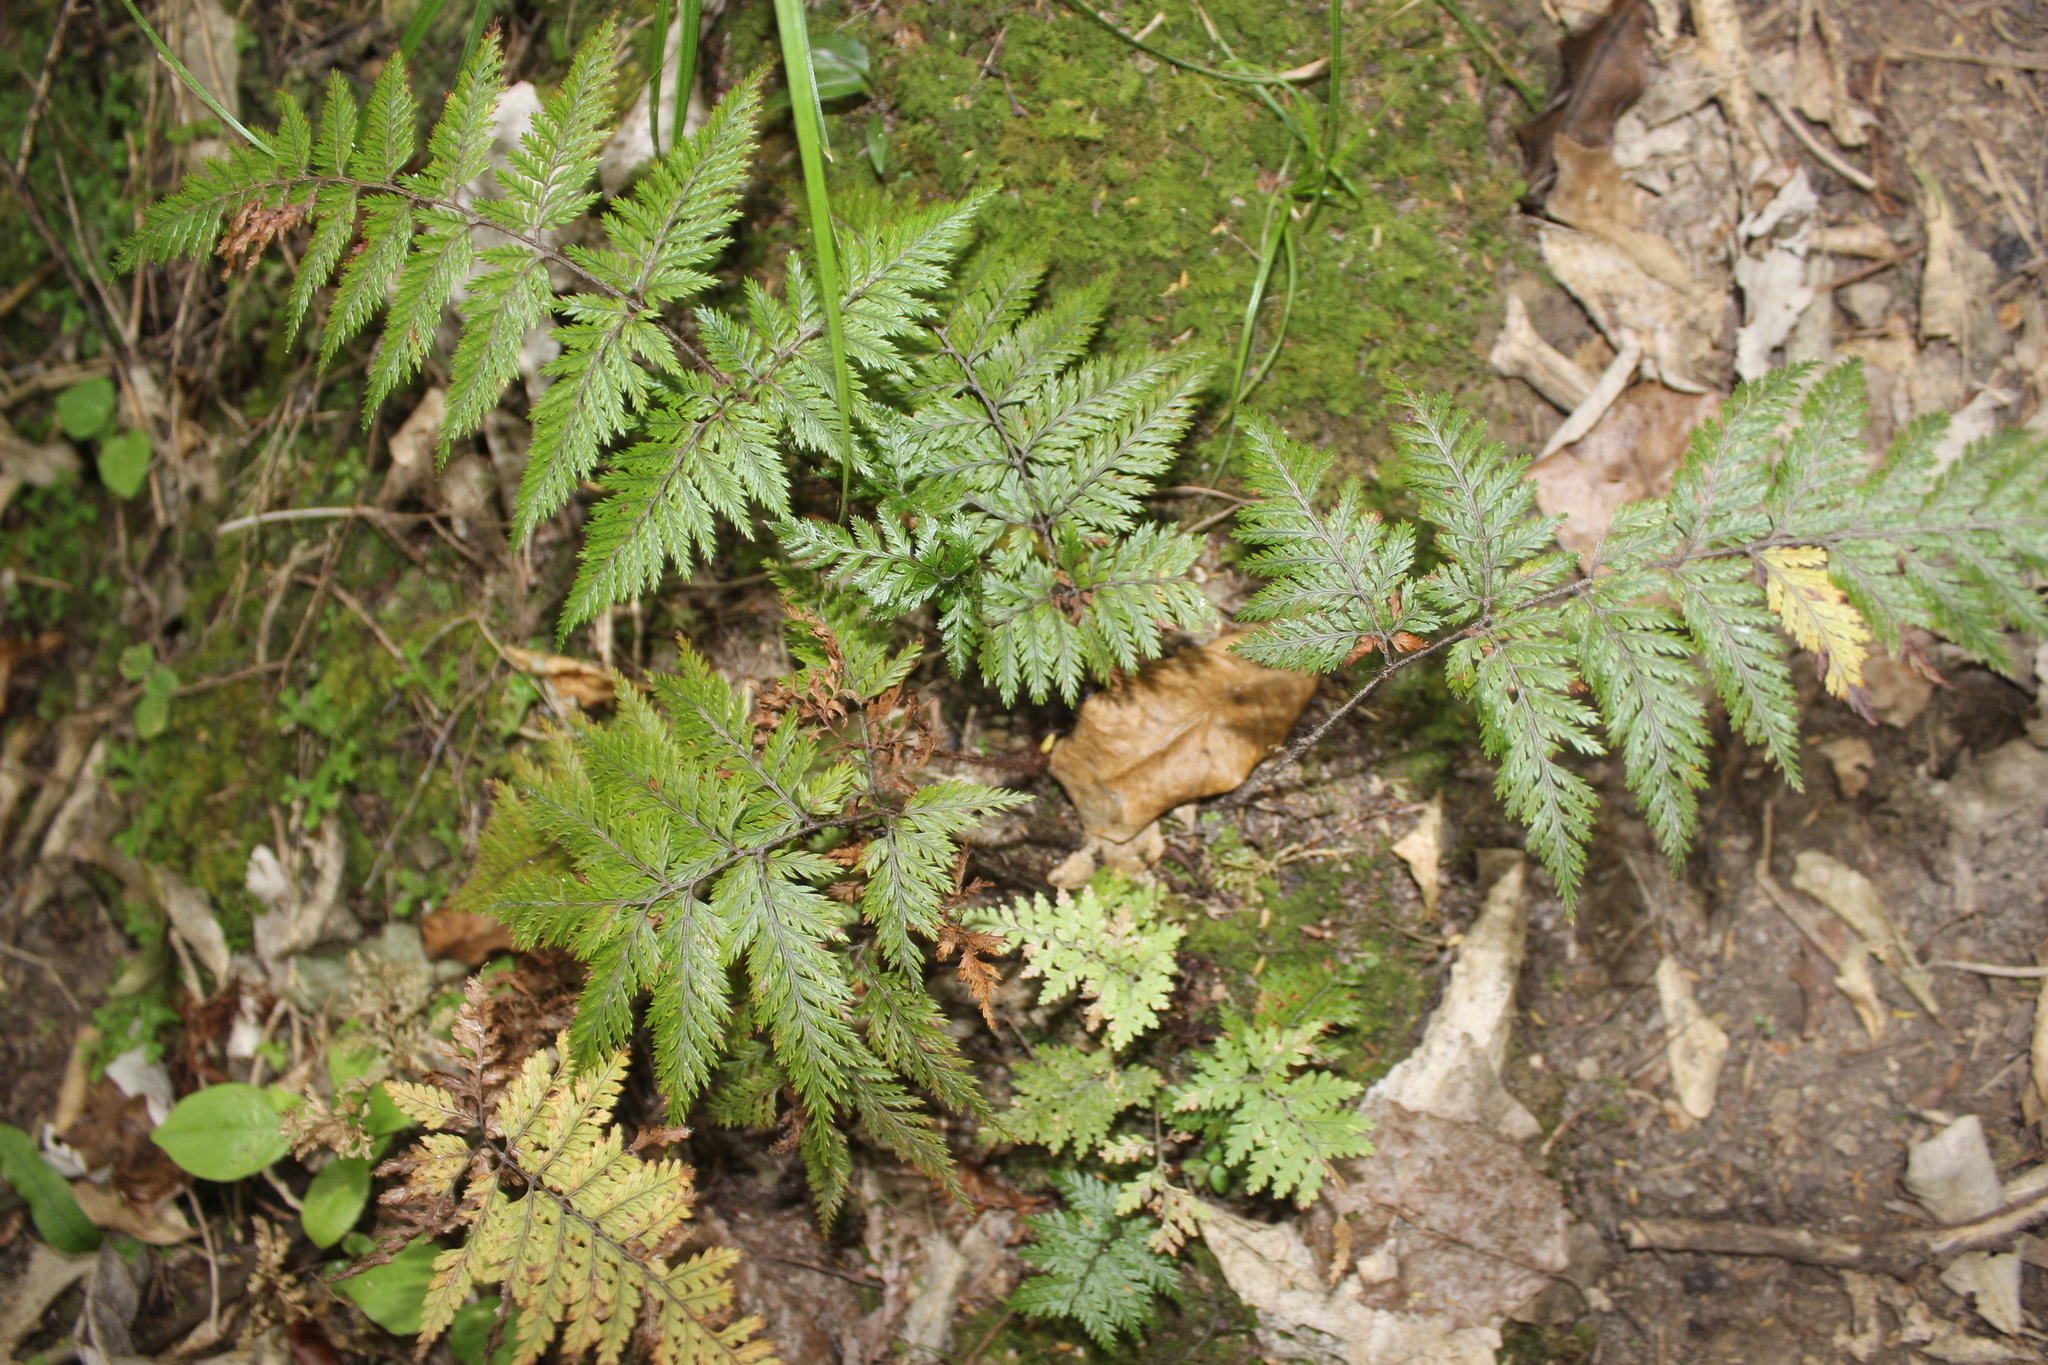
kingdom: Plantae
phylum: Tracheophyta
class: Polypodiopsida
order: Polypodiales
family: Dryopteridaceae
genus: Lastreopsis
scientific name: Lastreopsis hispida
